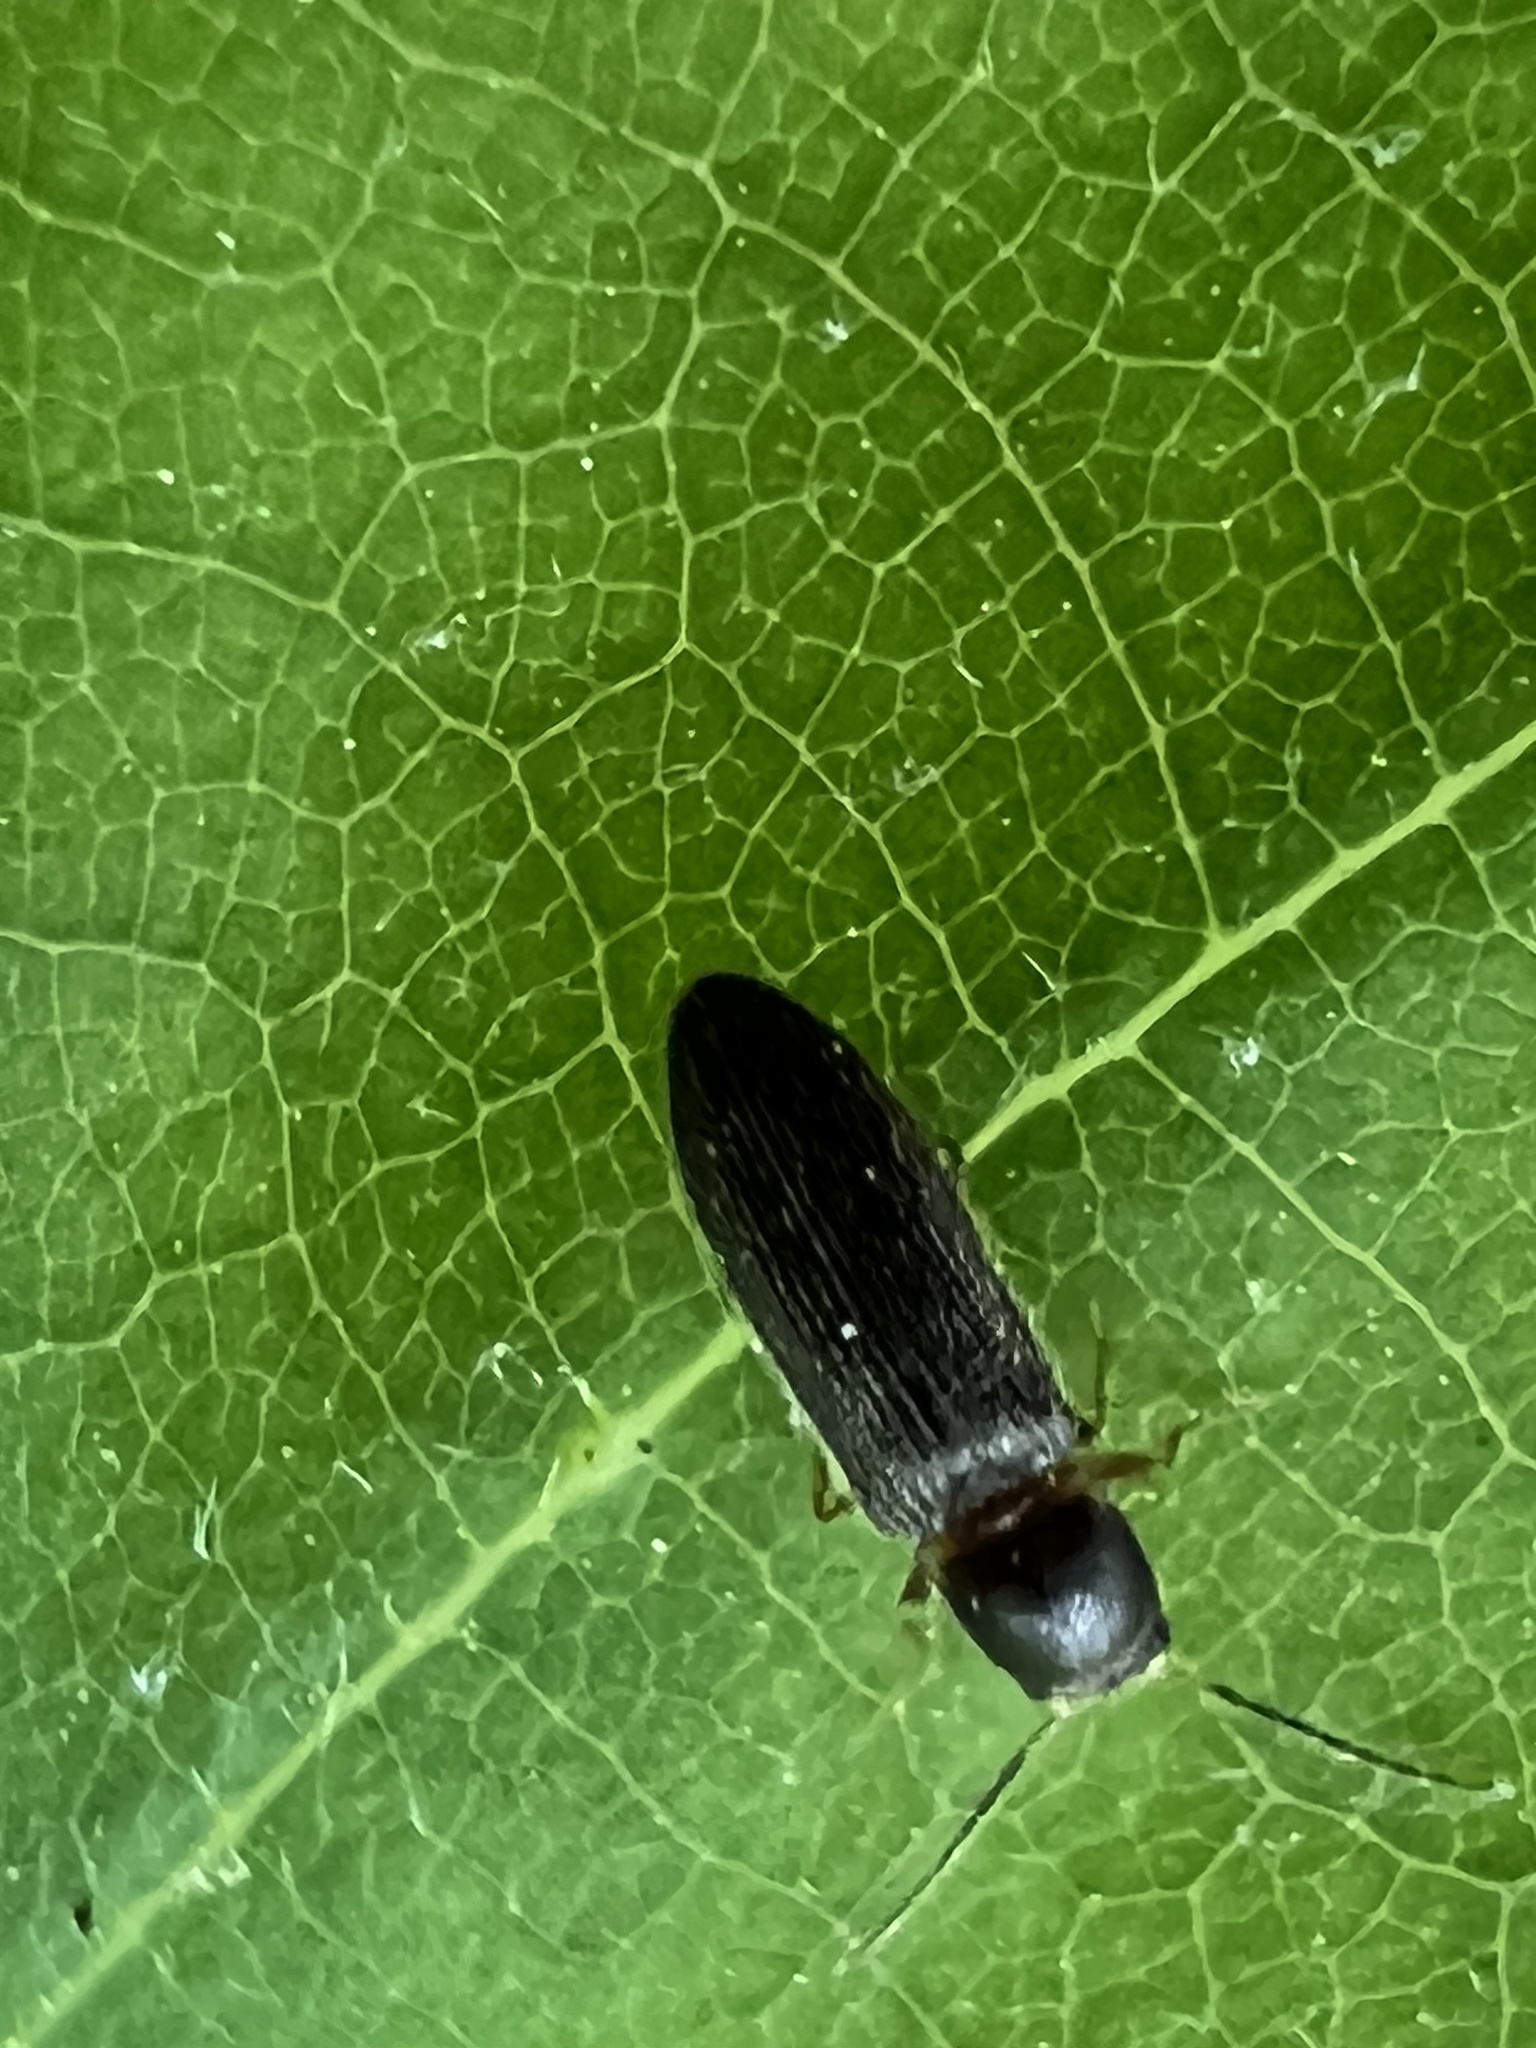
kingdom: Animalia
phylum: Arthropoda
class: Insecta
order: Coleoptera
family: Elateridae
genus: Tetralimonius
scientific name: Tetralimonius
